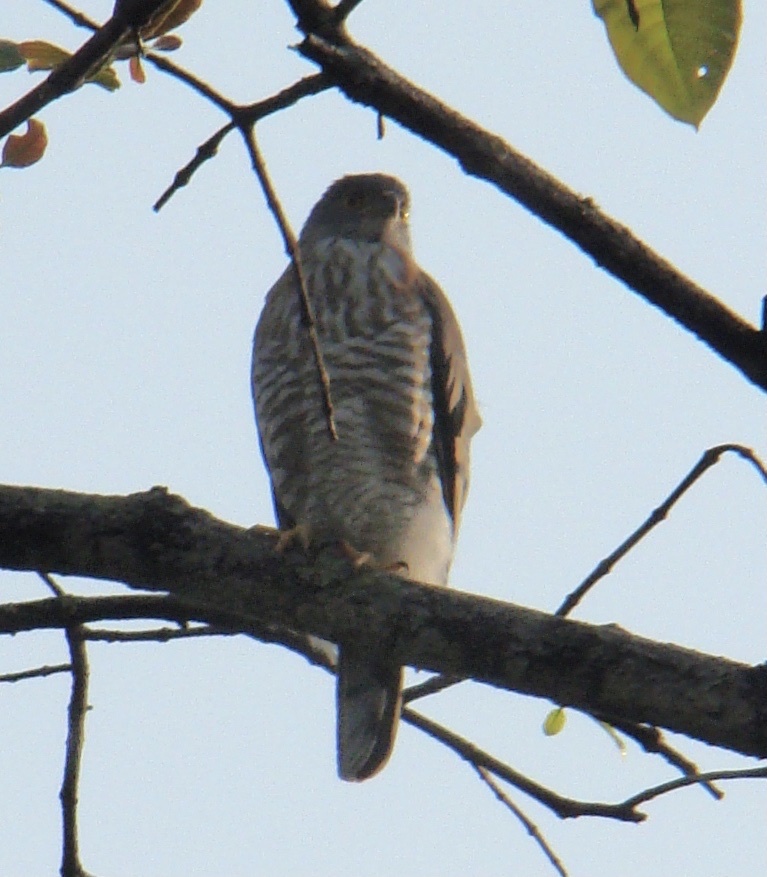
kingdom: Animalia
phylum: Chordata
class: Aves
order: Accipitriformes
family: Accipitridae
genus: Accipiter
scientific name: Accipiter trivirgatus
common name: Crested goshawk
